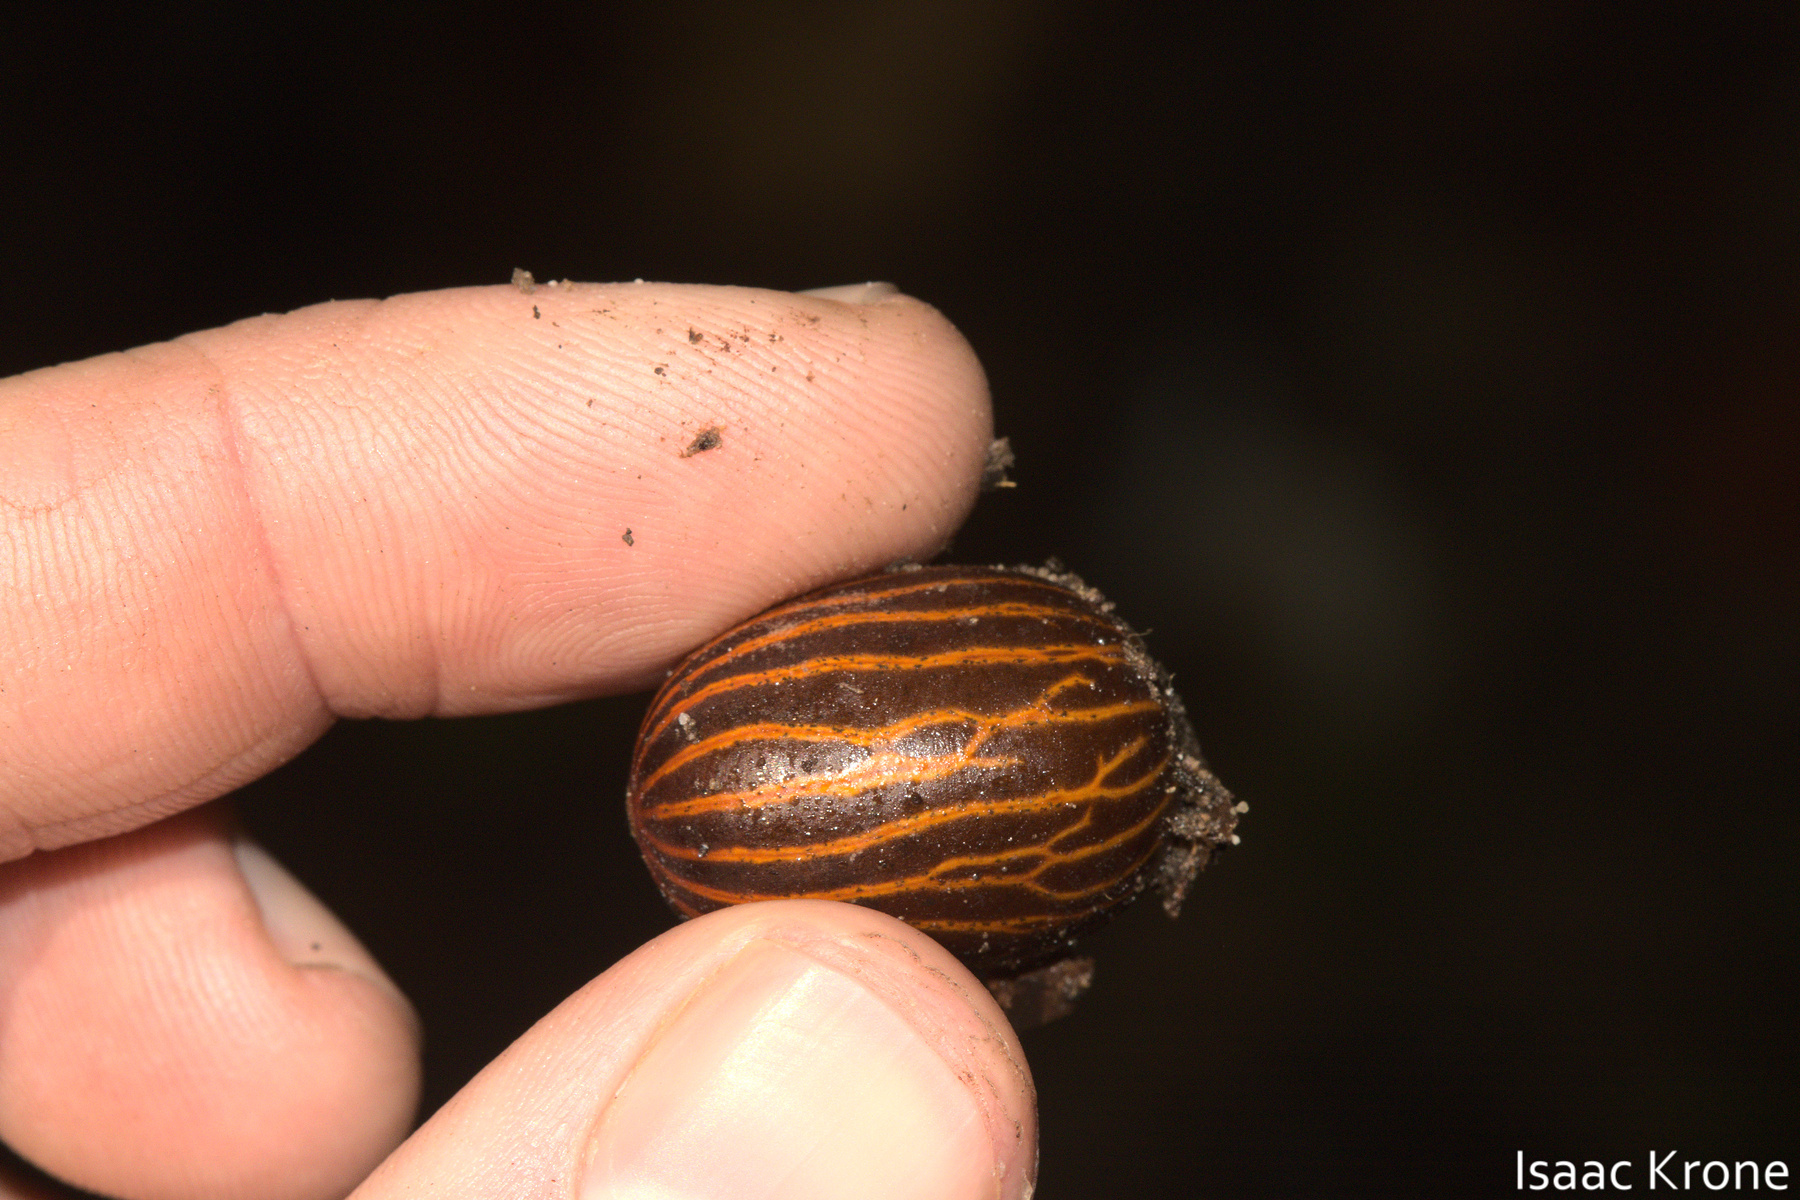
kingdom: Plantae
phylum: Tracheophyta
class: Liliopsida
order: Arecales
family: Arecaceae
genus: Socratea
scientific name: Socratea exorrhiza
